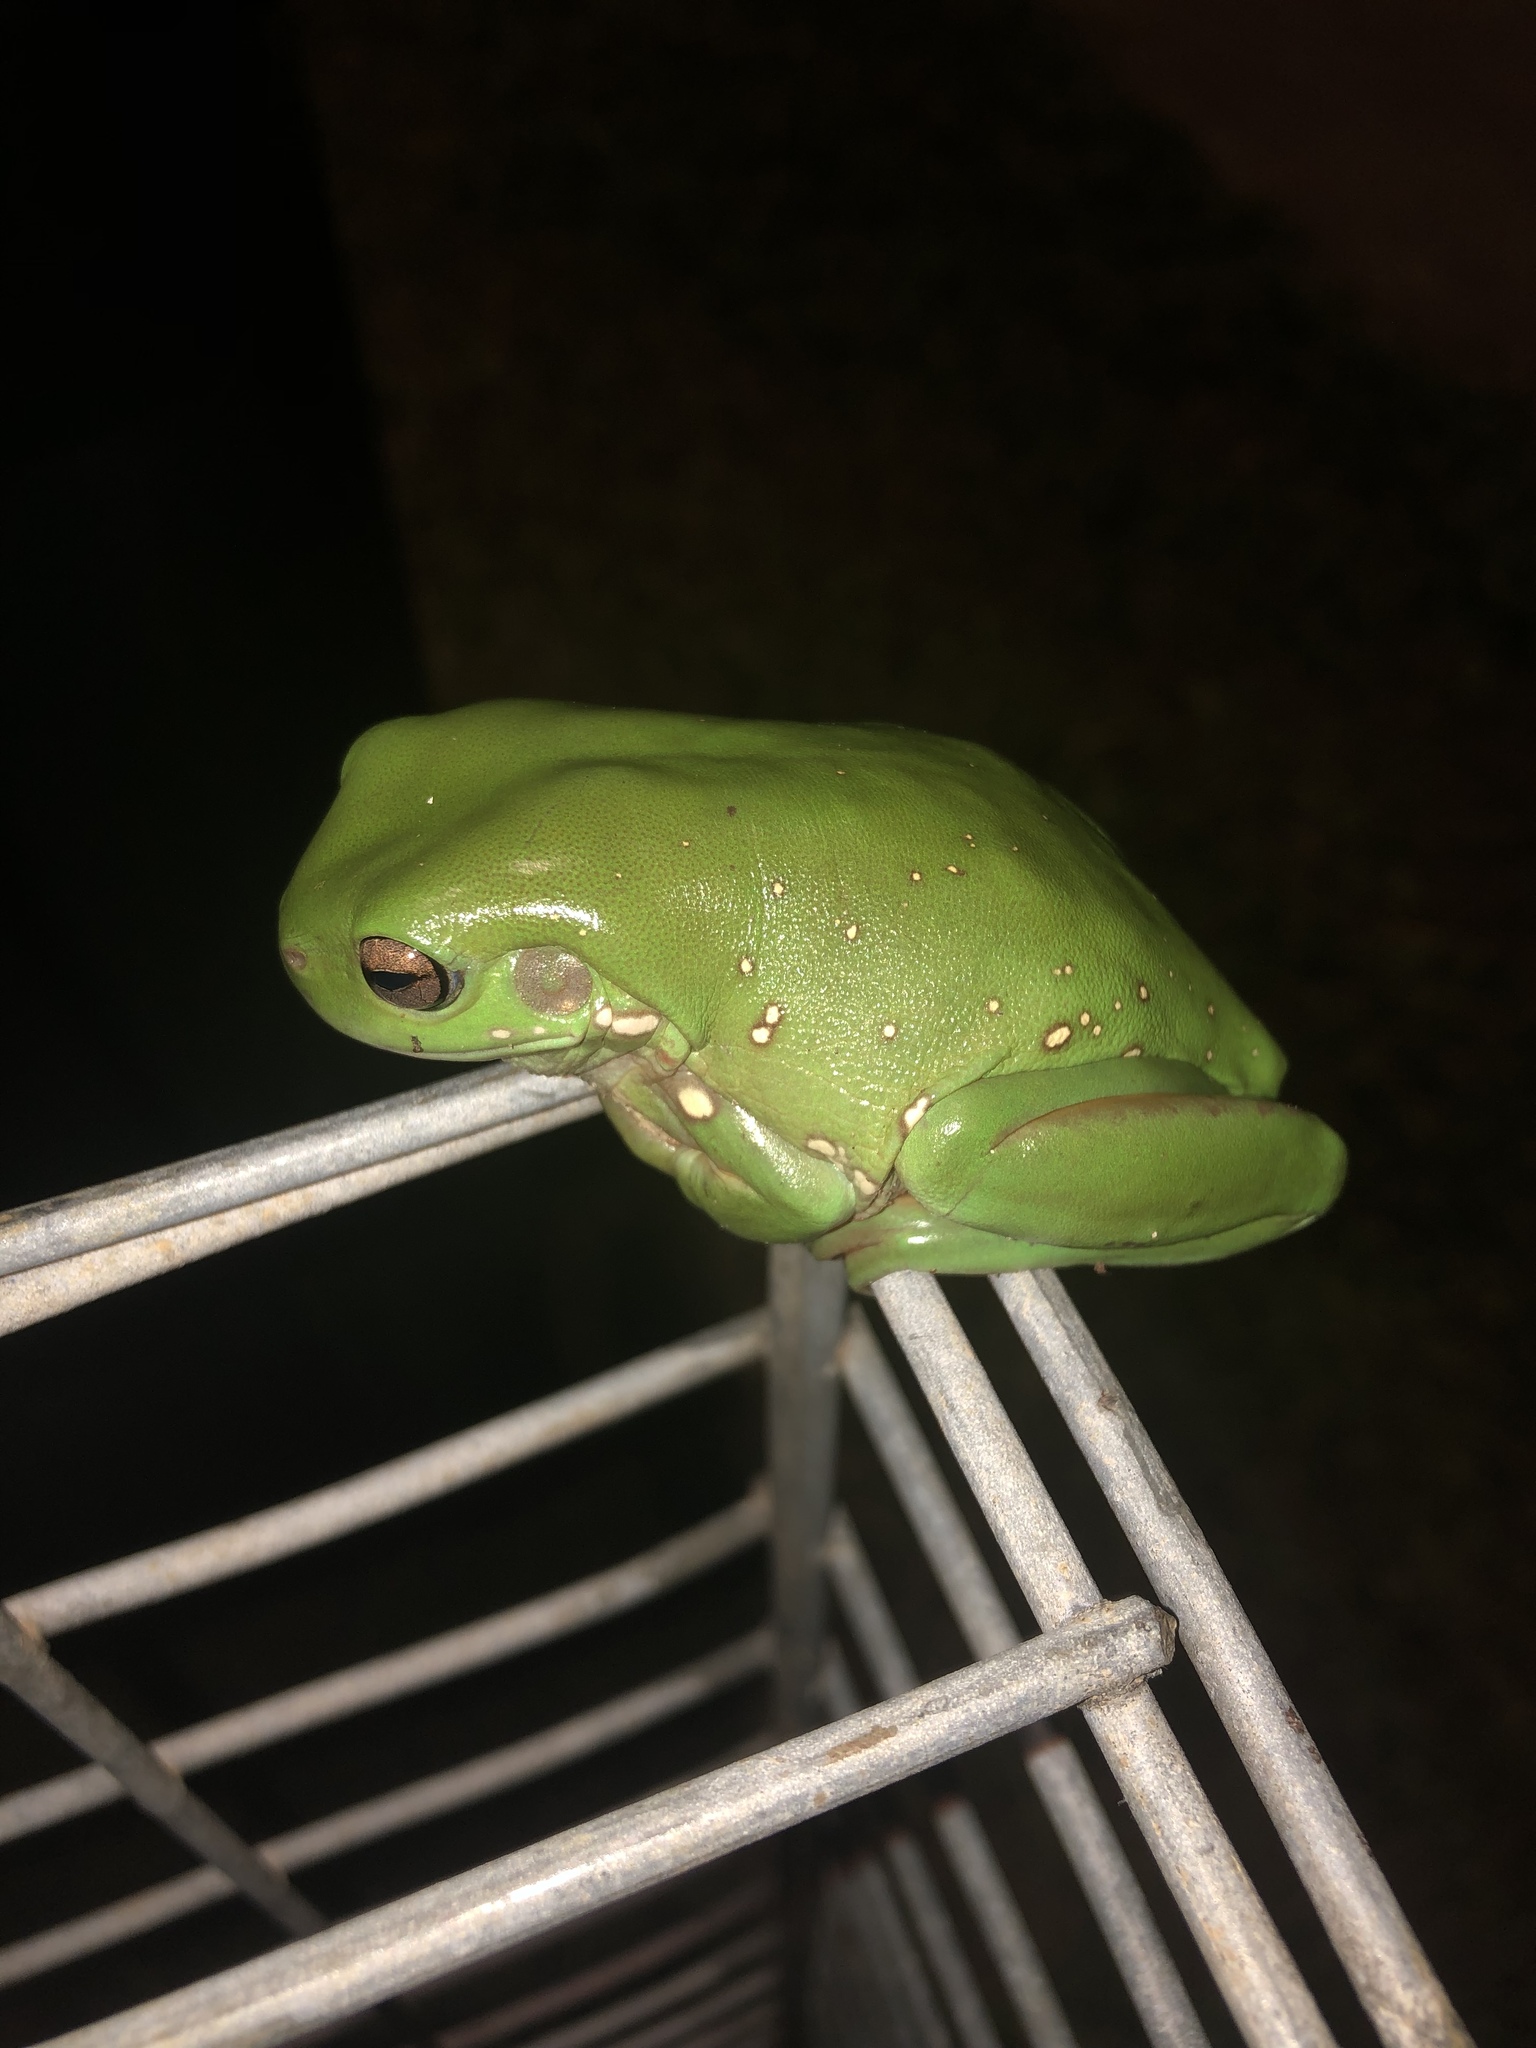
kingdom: Animalia
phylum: Chordata
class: Amphibia
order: Anura
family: Pelodryadidae
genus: Ranoidea
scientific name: Ranoidea caerulea
